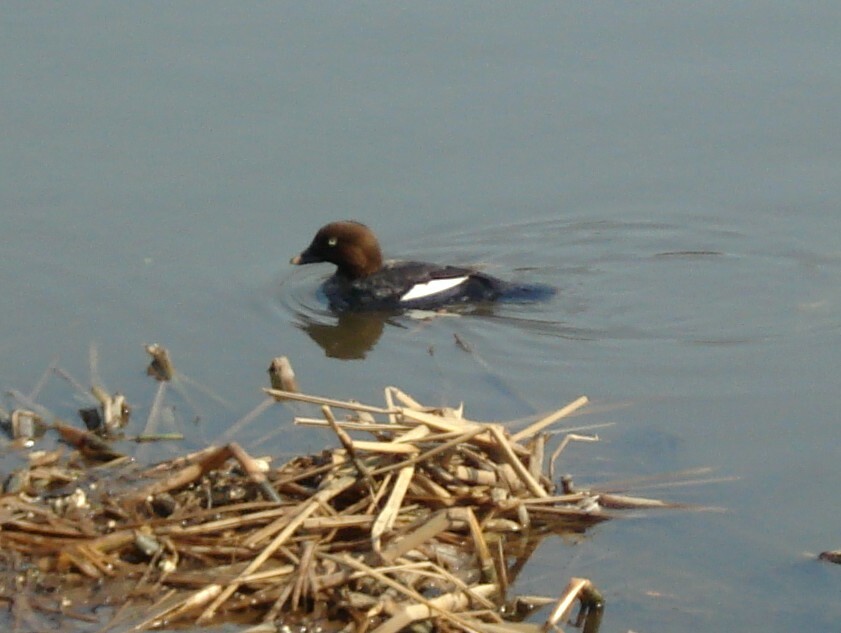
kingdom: Animalia
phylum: Chordata
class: Aves
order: Anseriformes
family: Anatidae
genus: Bucephala
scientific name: Bucephala clangula
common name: Common goldeneye
